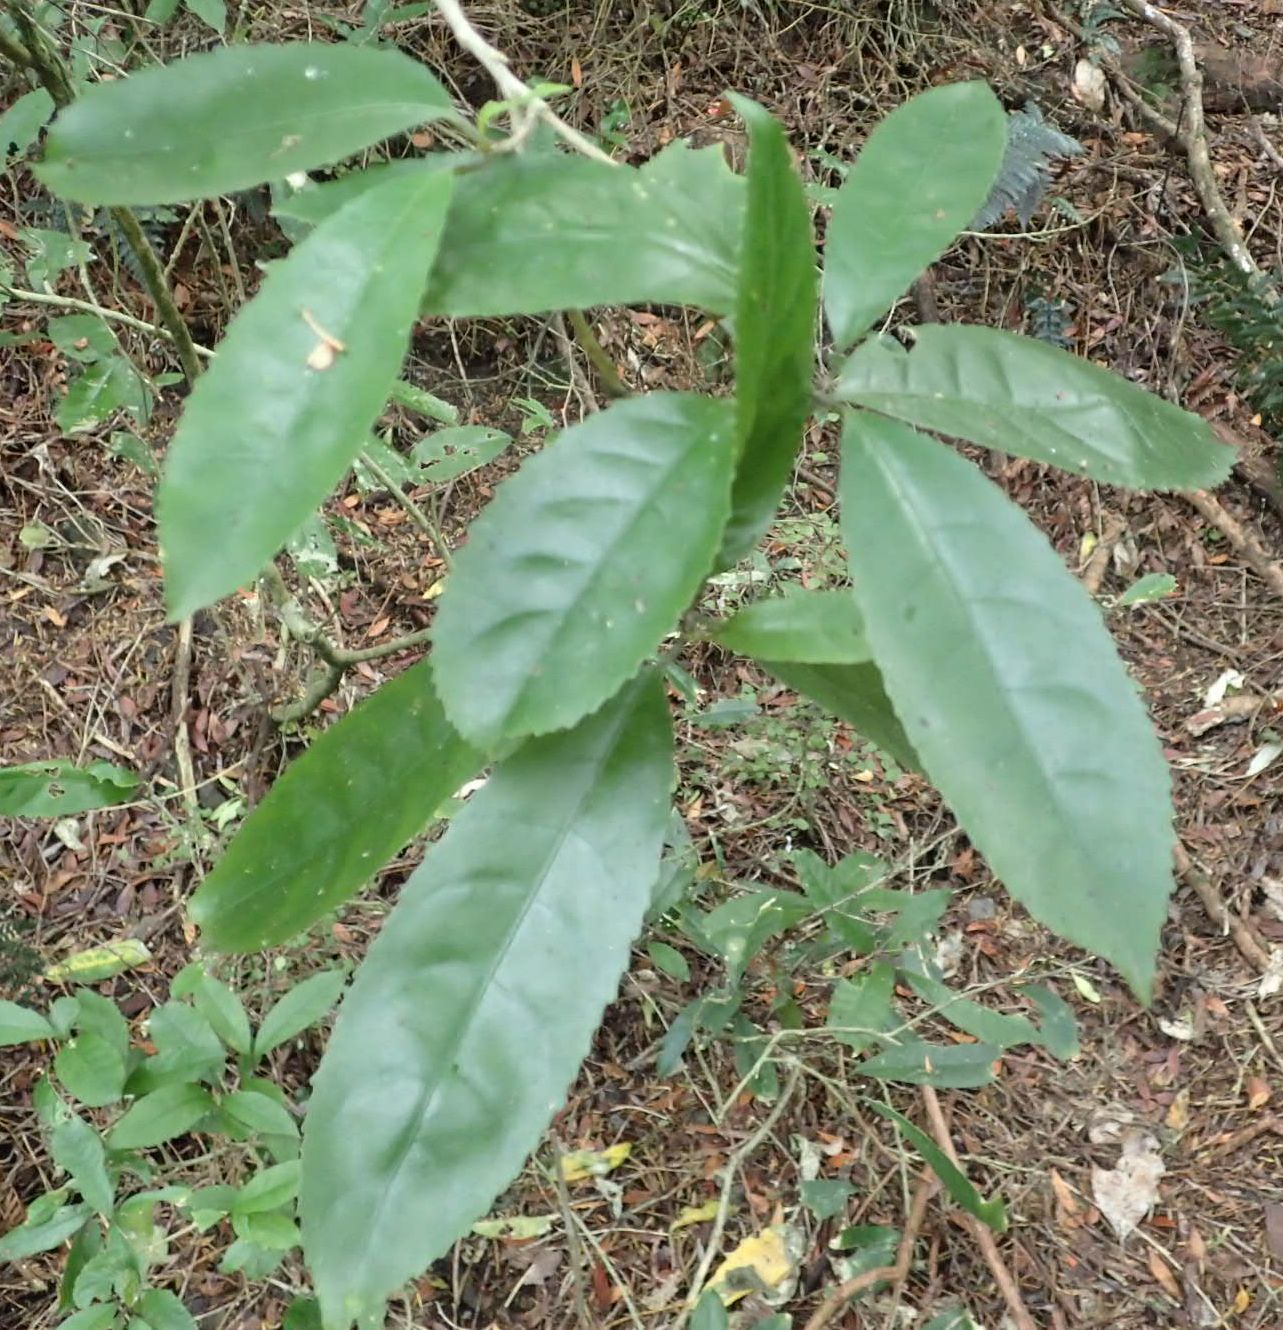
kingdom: Plantae
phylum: Tracheophyta
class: Magnoliopsida
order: Malpighiales
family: Violaceae
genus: Melicytus
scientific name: Melicytus ramiflorus
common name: Mahoe
